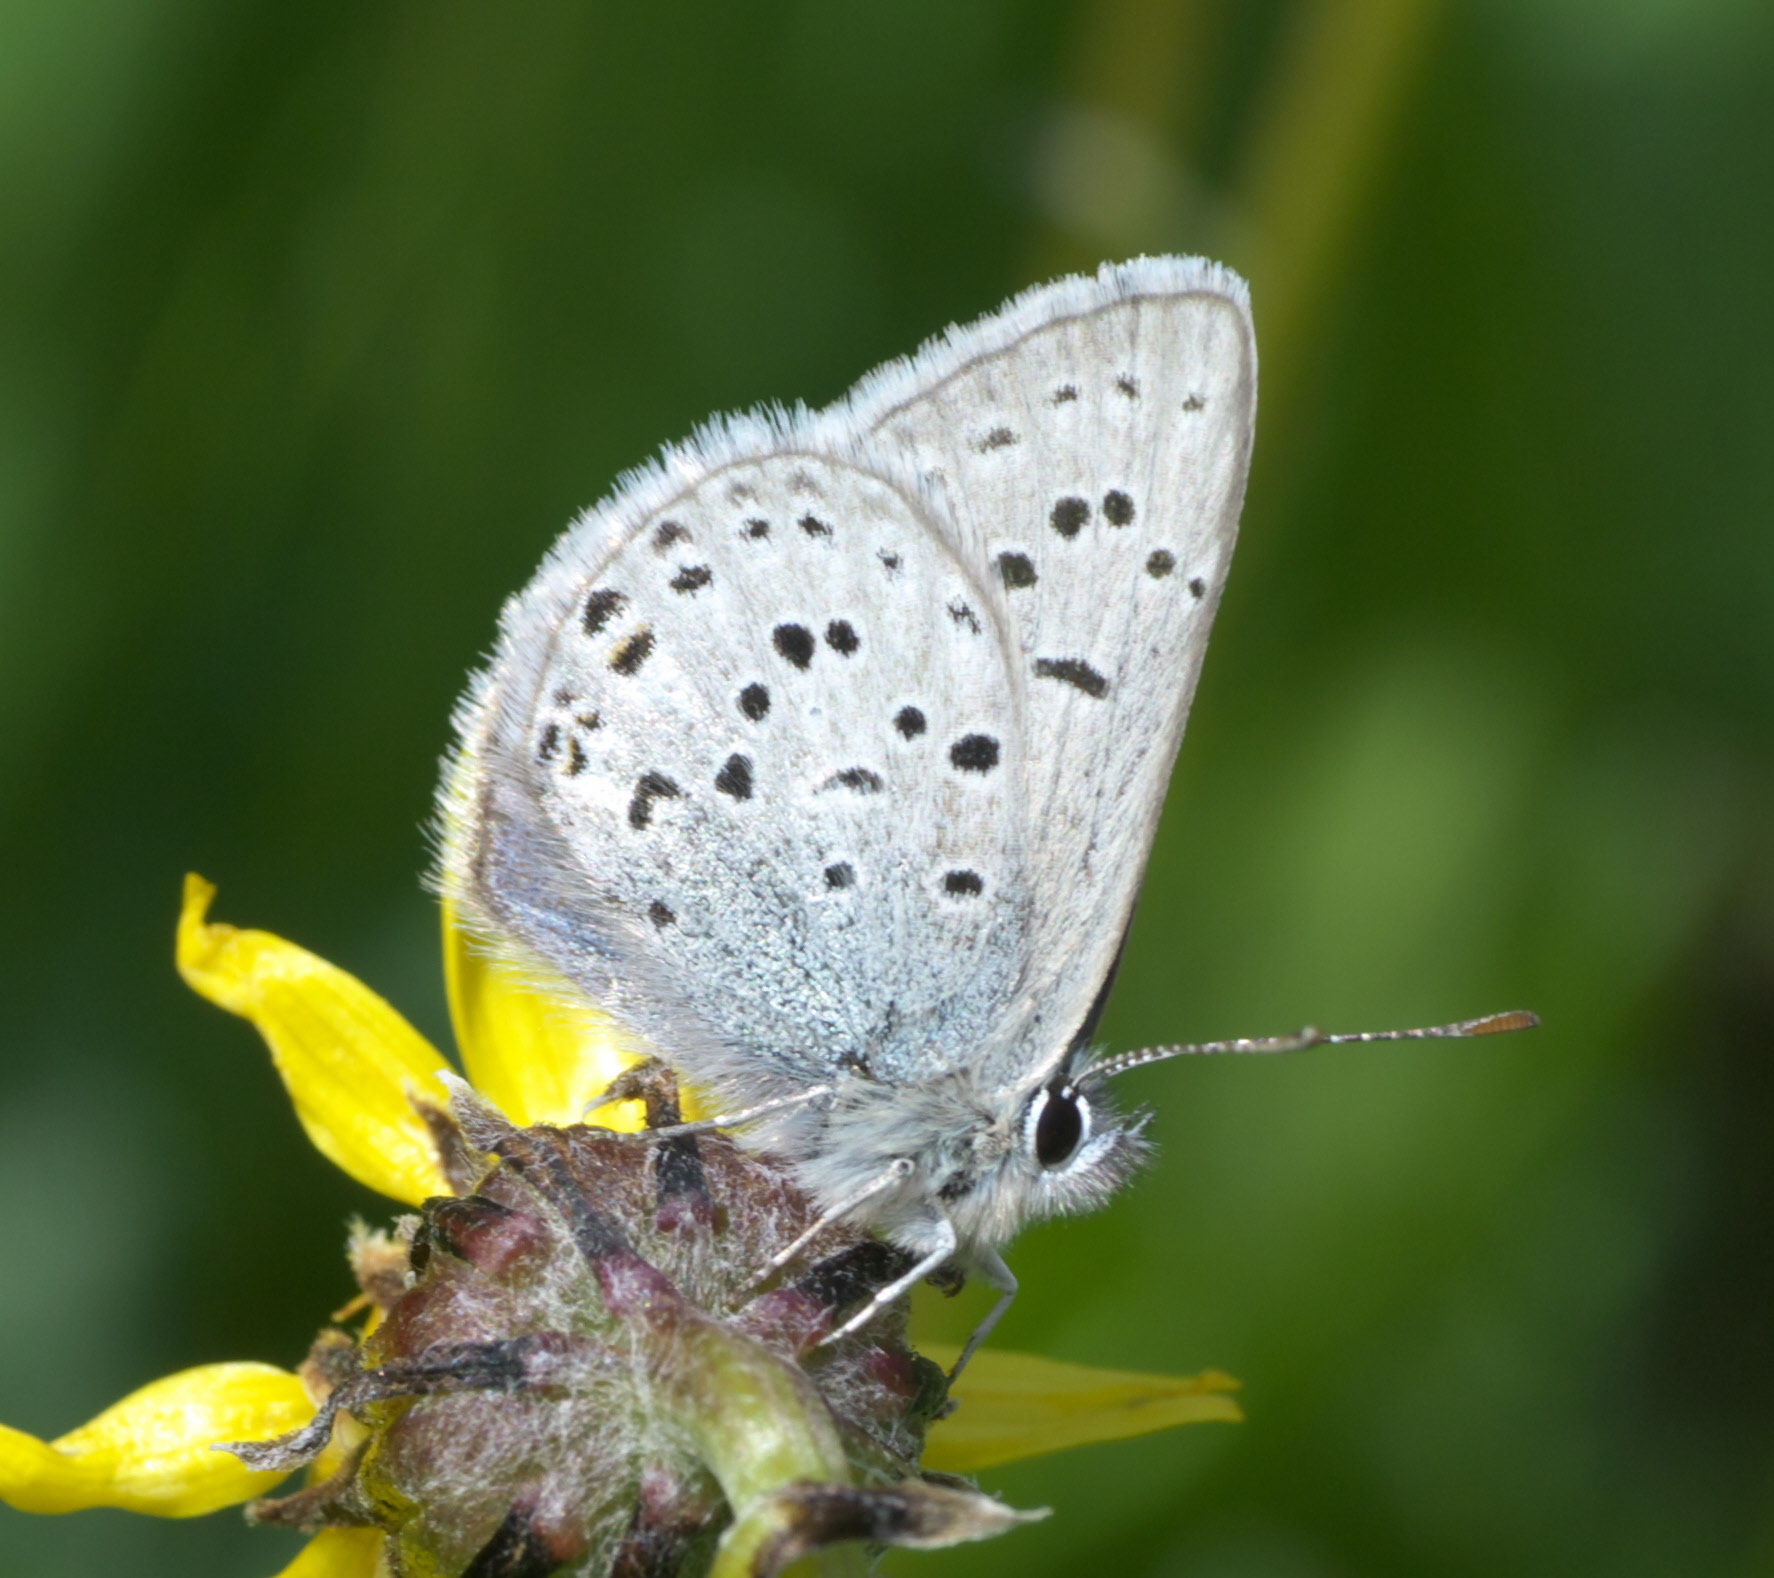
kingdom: Animalia
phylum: Arthropoda
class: Insecta
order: Lepidoptera
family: Lycaenidae
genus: Icaricia
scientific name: Icaricia saepiolus
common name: Greenish blue
